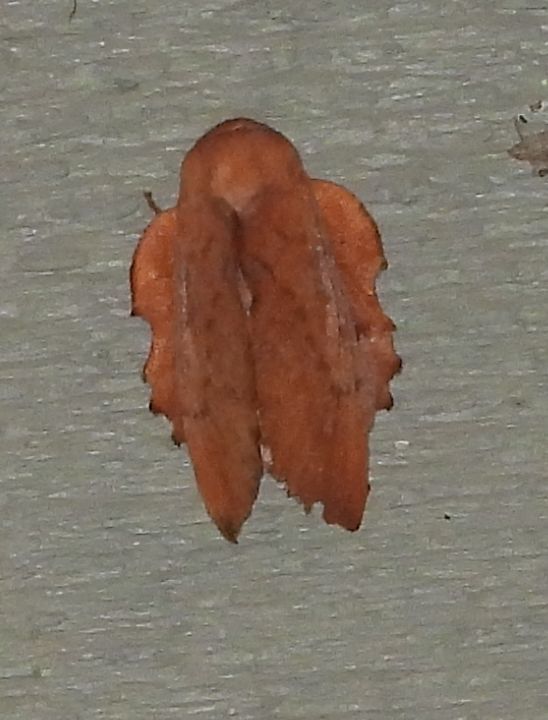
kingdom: Animalia
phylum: Arthropoda
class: Insecta
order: Lepidoptera
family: Lasiocampidae
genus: Phyllodesma
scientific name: Phyllodesma americana
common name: American lappet moth
